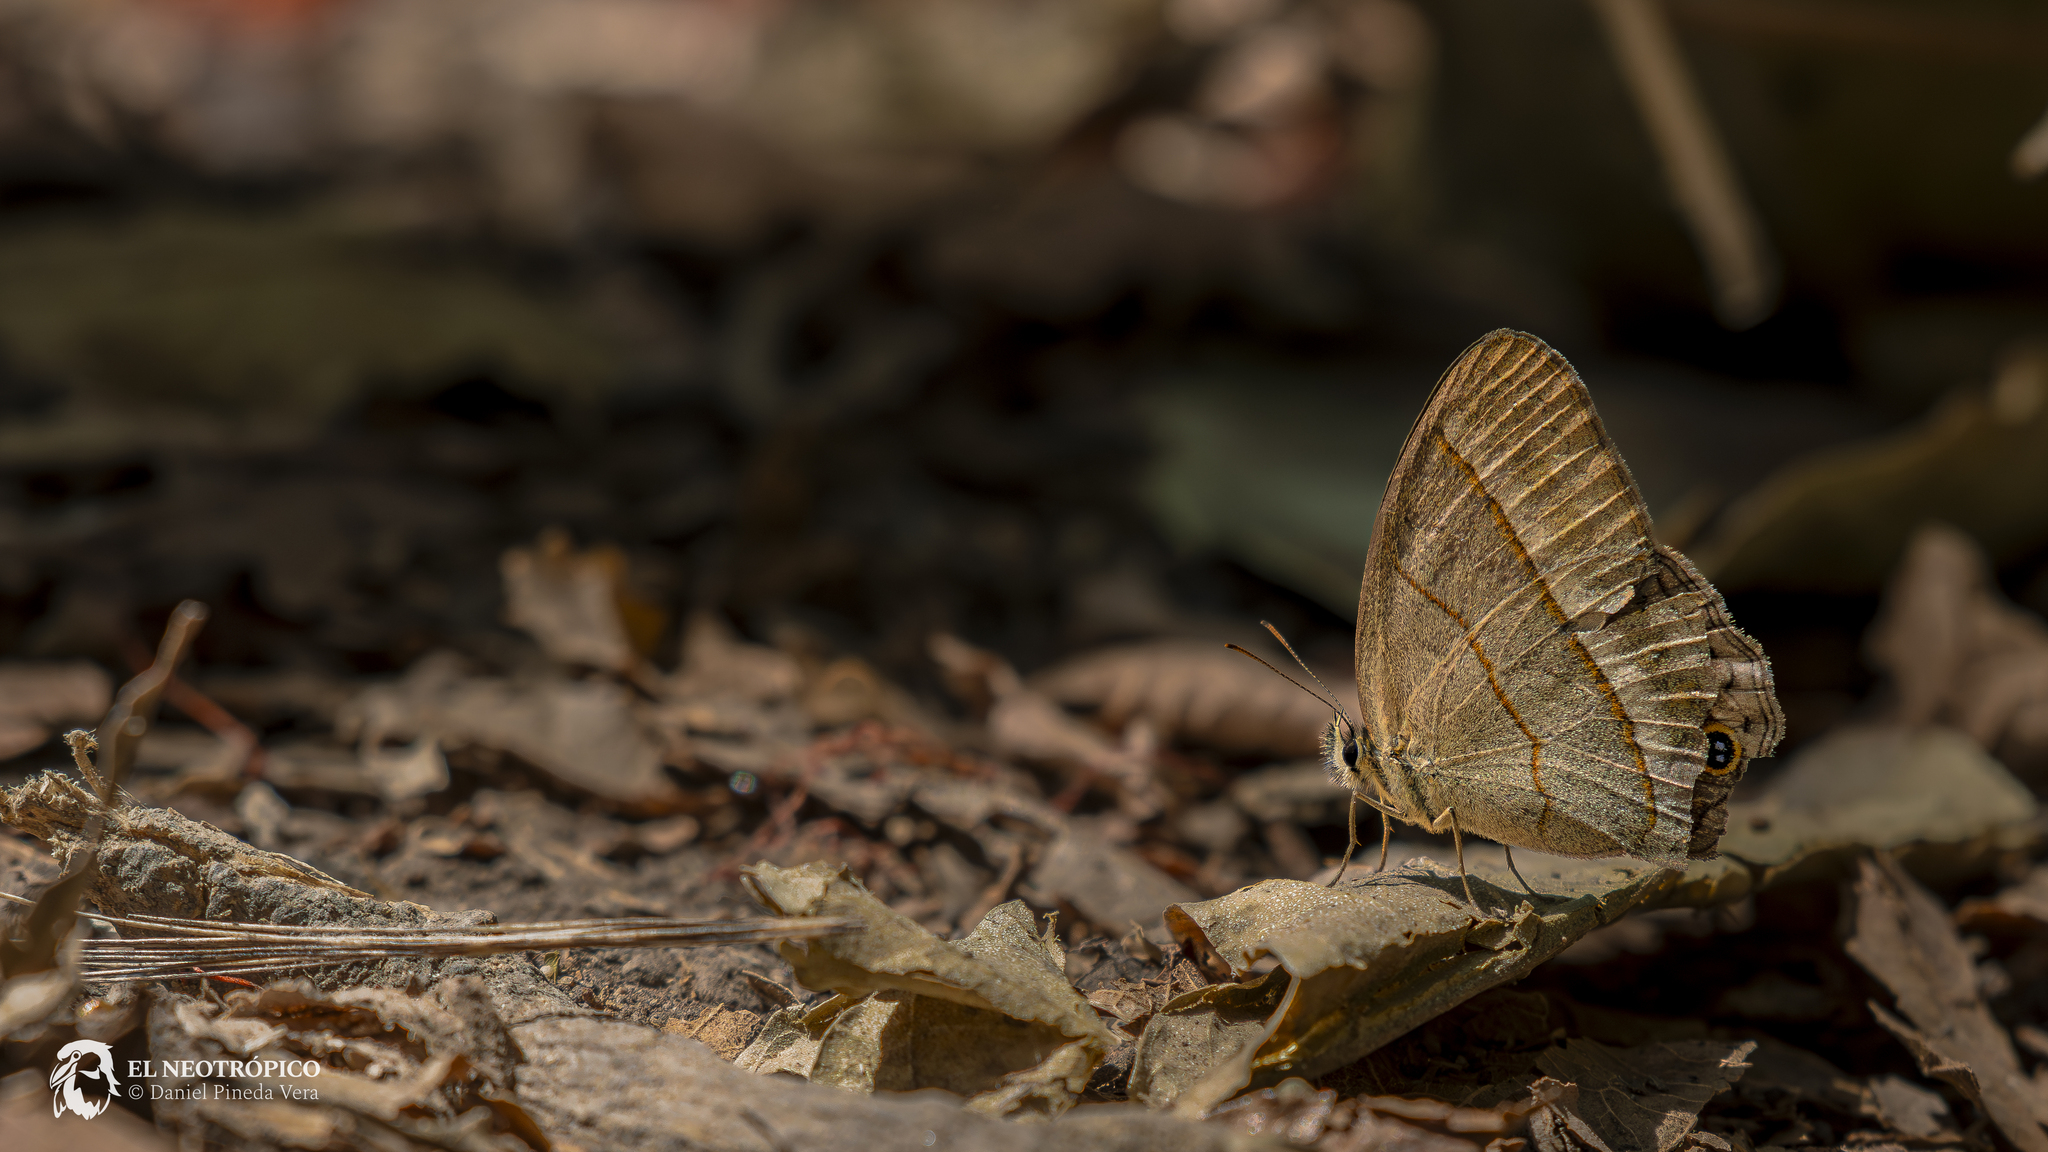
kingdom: Animalia
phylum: Arthropoda
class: Insecta
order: Lepidoptera
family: Nymphalidae
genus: Euptychia
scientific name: Euptychia Cissia pompilia
